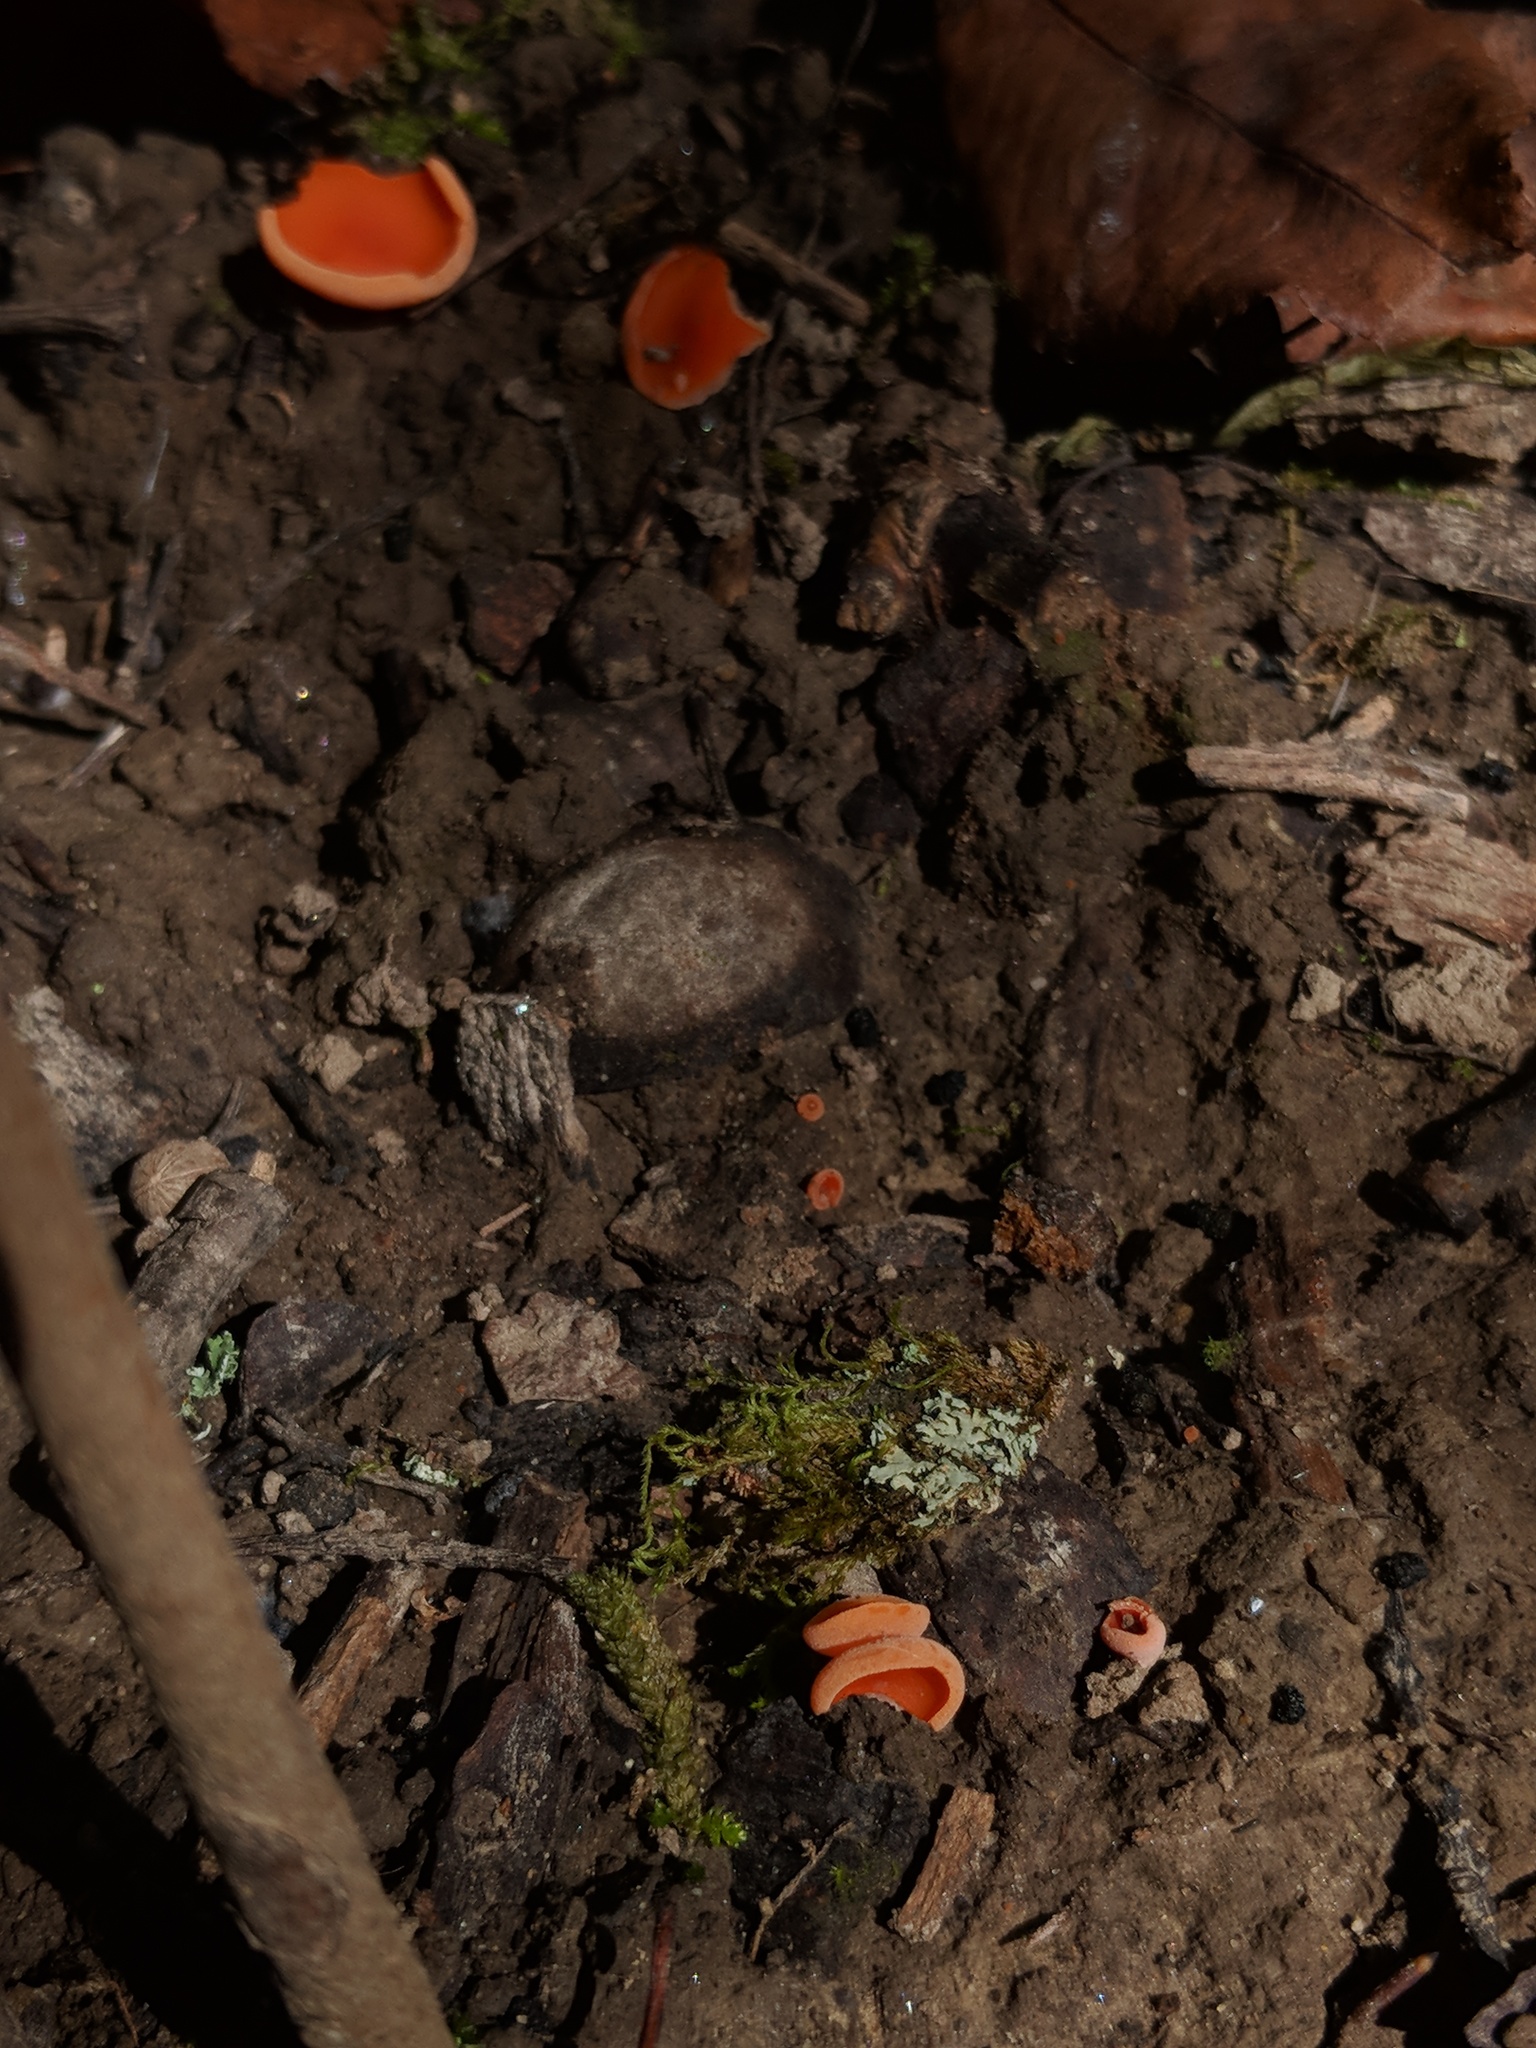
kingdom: Fungi
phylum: Ascomycota
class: Pezizomycetes
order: Pezizales
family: Pyronemataceae
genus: Aleuria
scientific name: Aleuria aurantia
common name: Orange peel fungus
